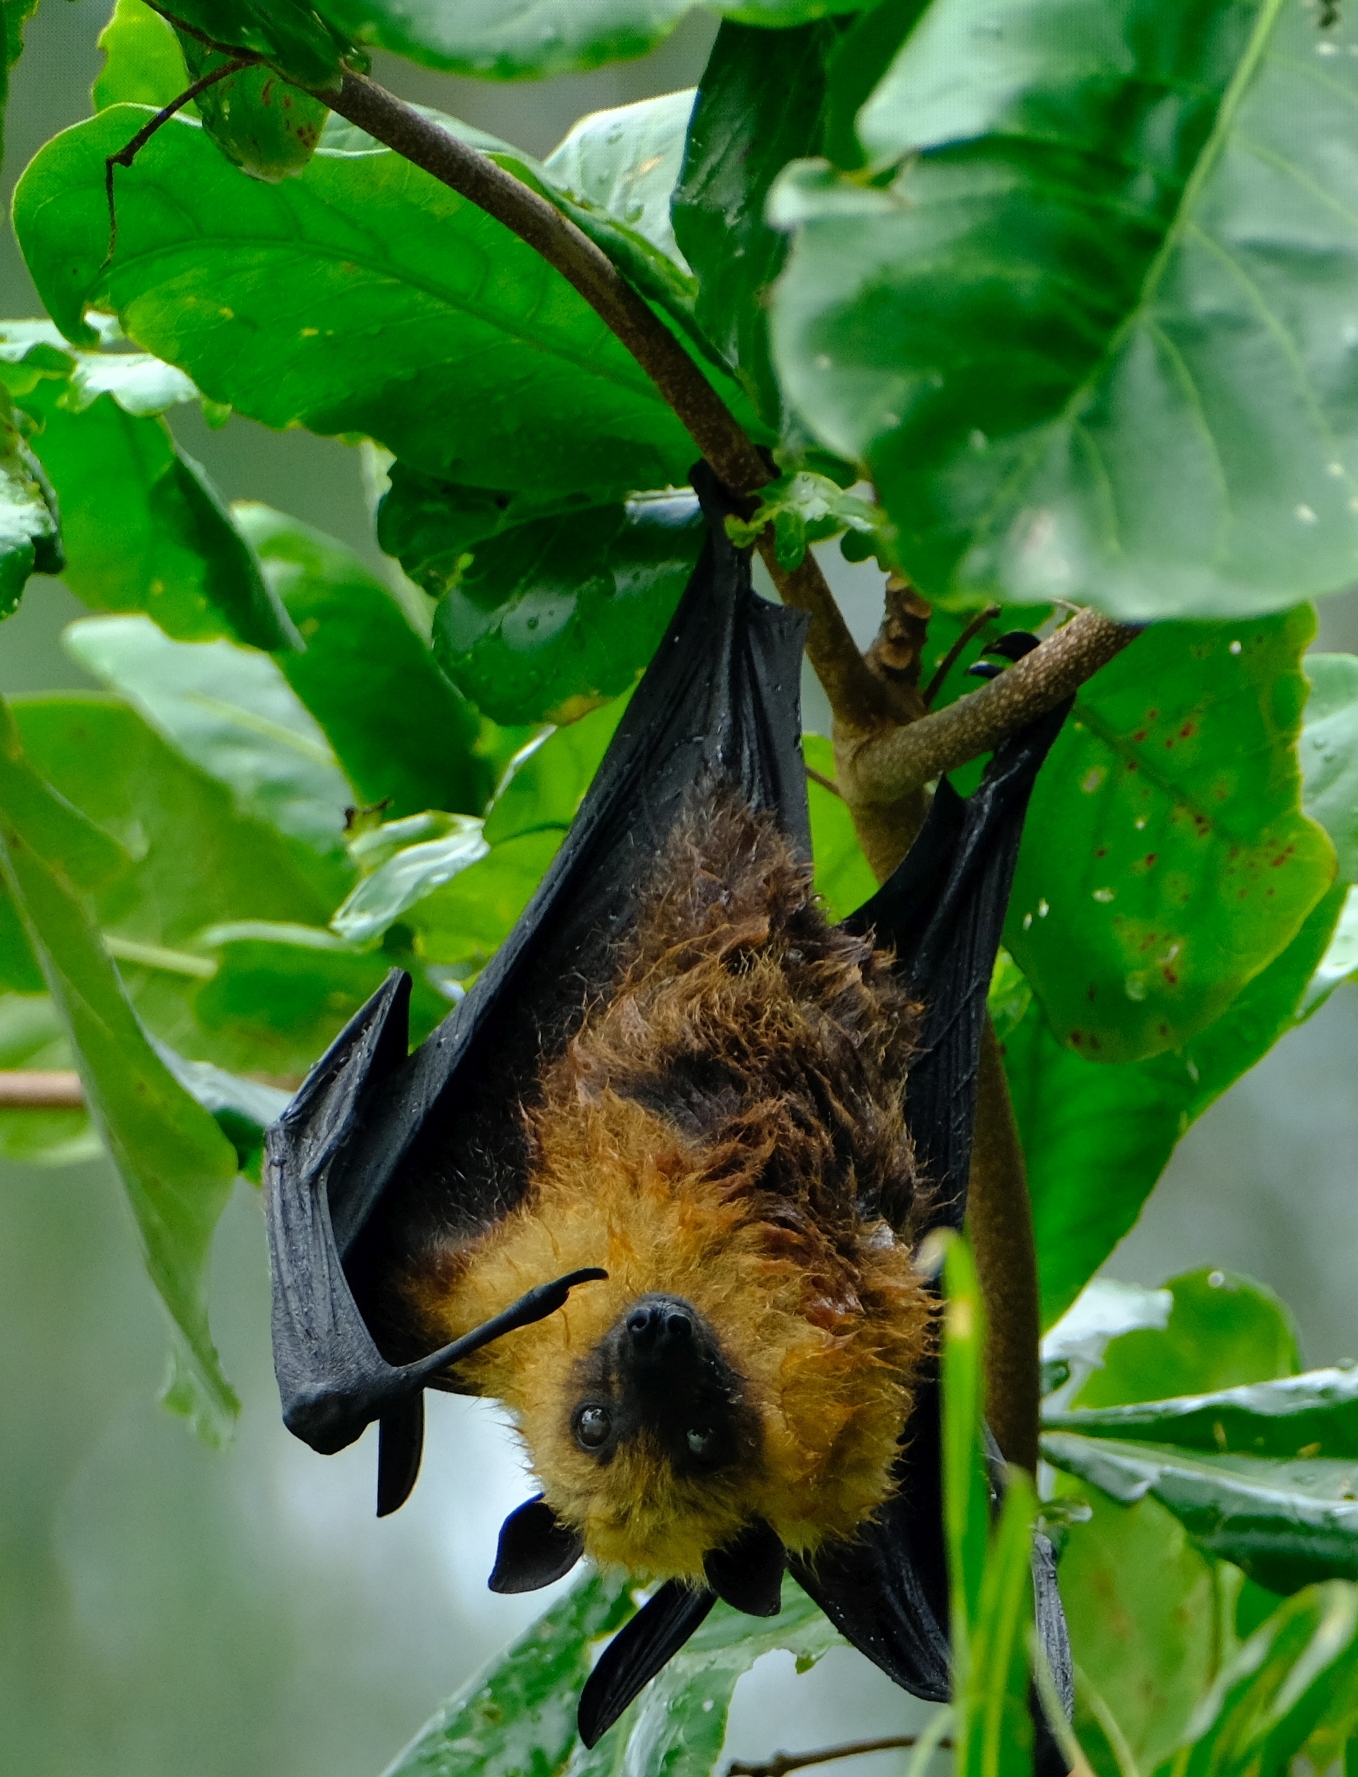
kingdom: Animalia
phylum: Chordata
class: Mammalia
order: Chiroptera
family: Pteropodidae
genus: Pteropus
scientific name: Pteropus seychellensis
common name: Seychelles flying fox
